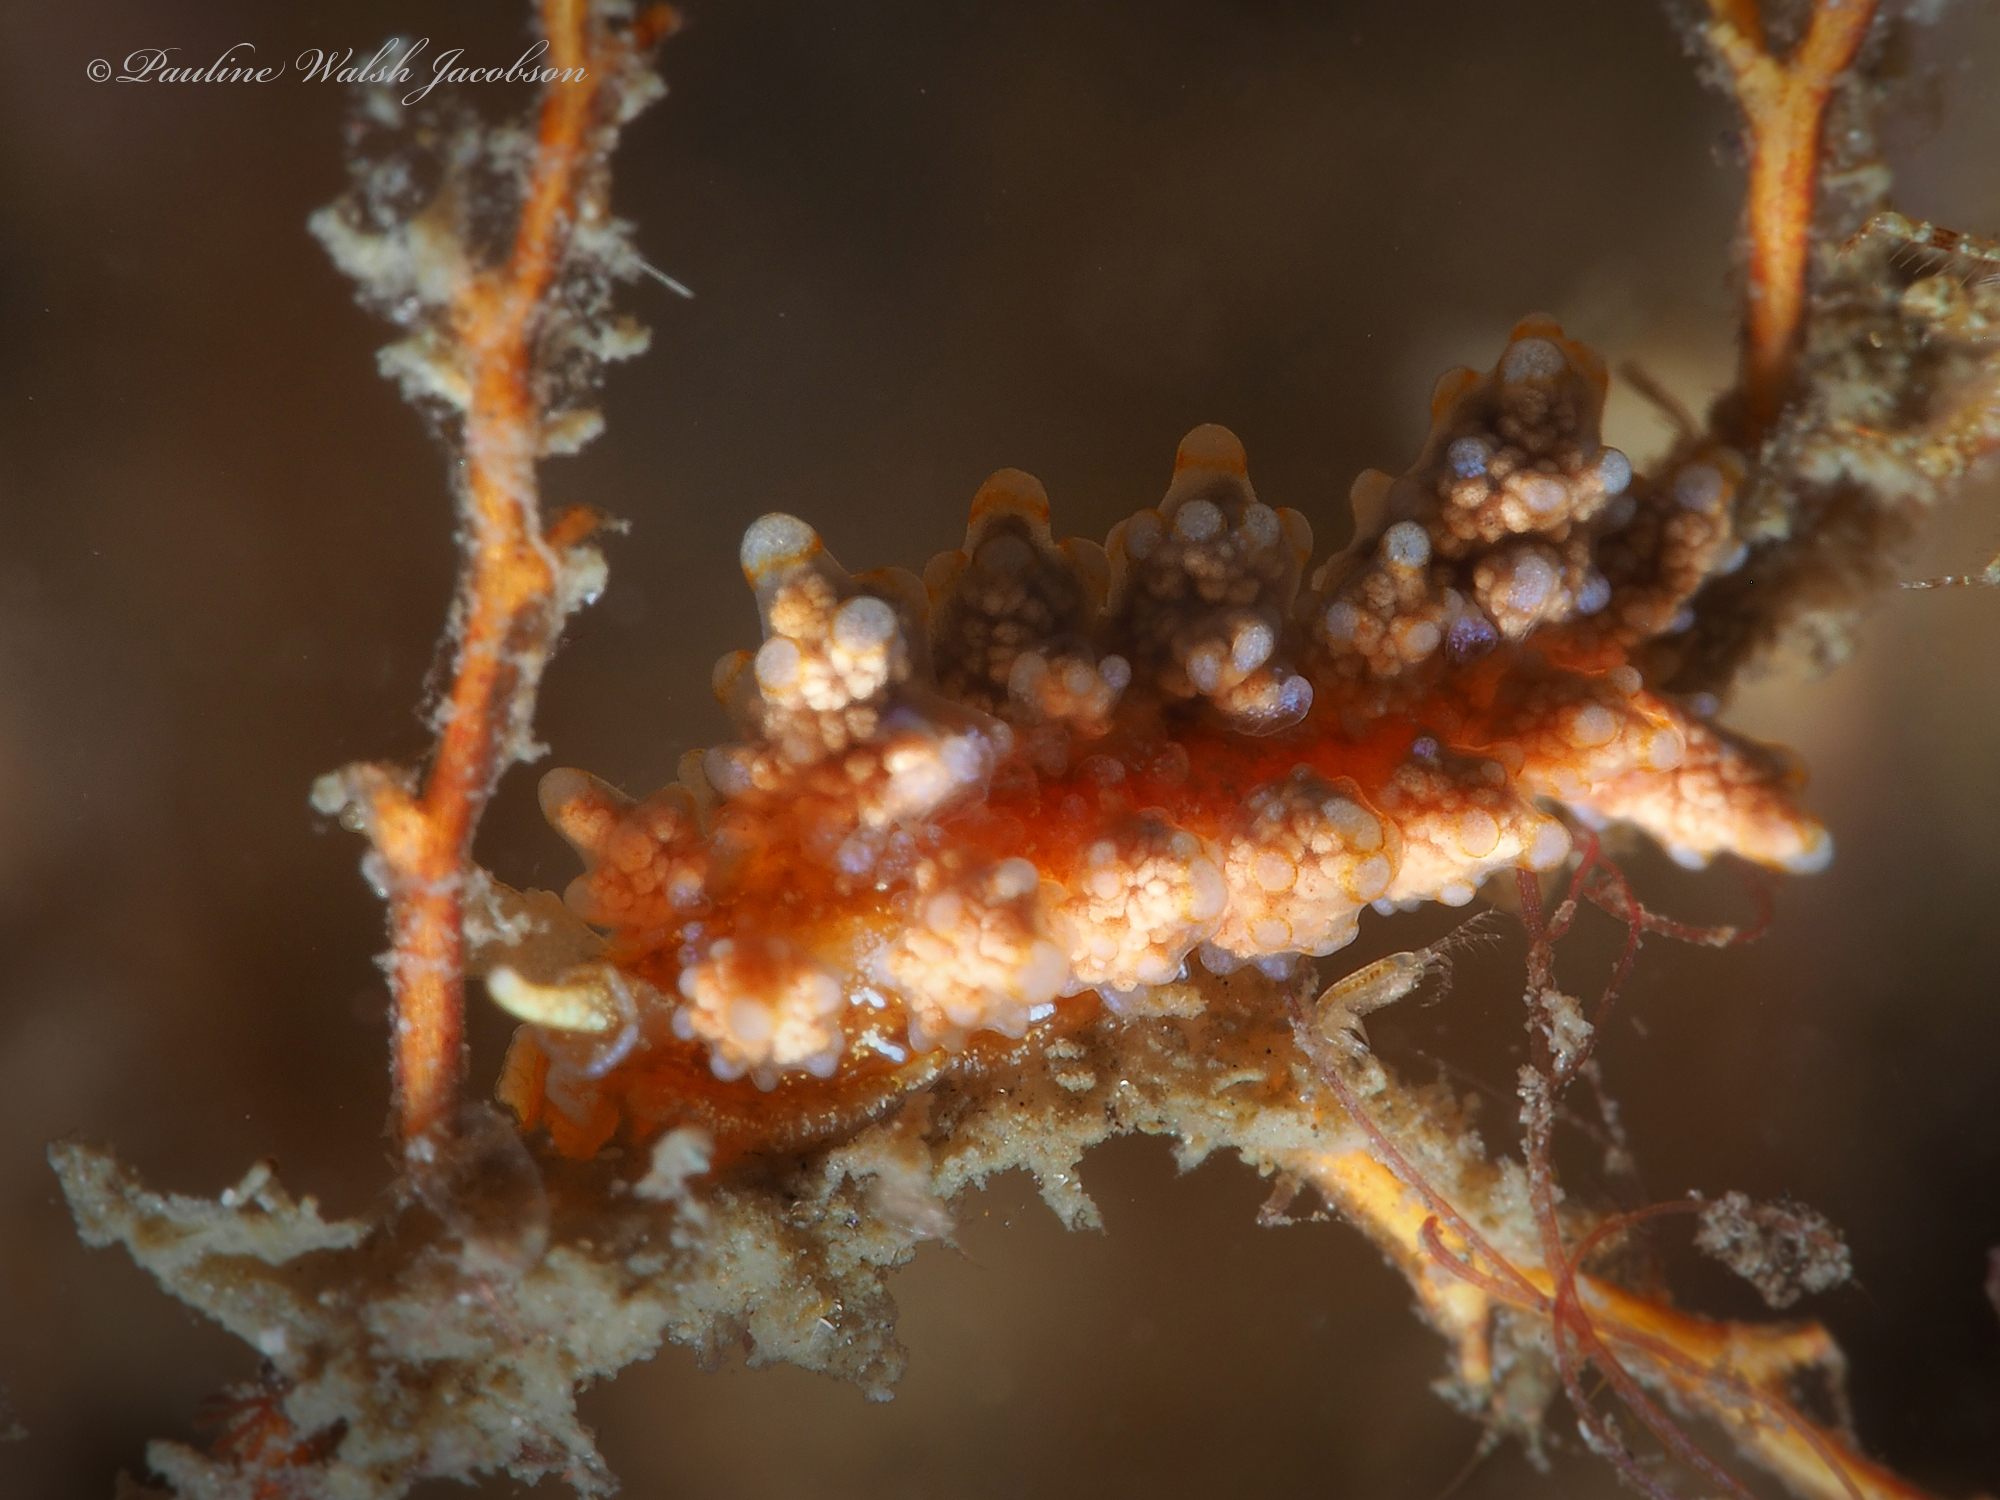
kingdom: Animalia
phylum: Mollusca
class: Gastropoda
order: Nudibranchia
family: Dotidae
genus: Doto
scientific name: Doto torrelavega
